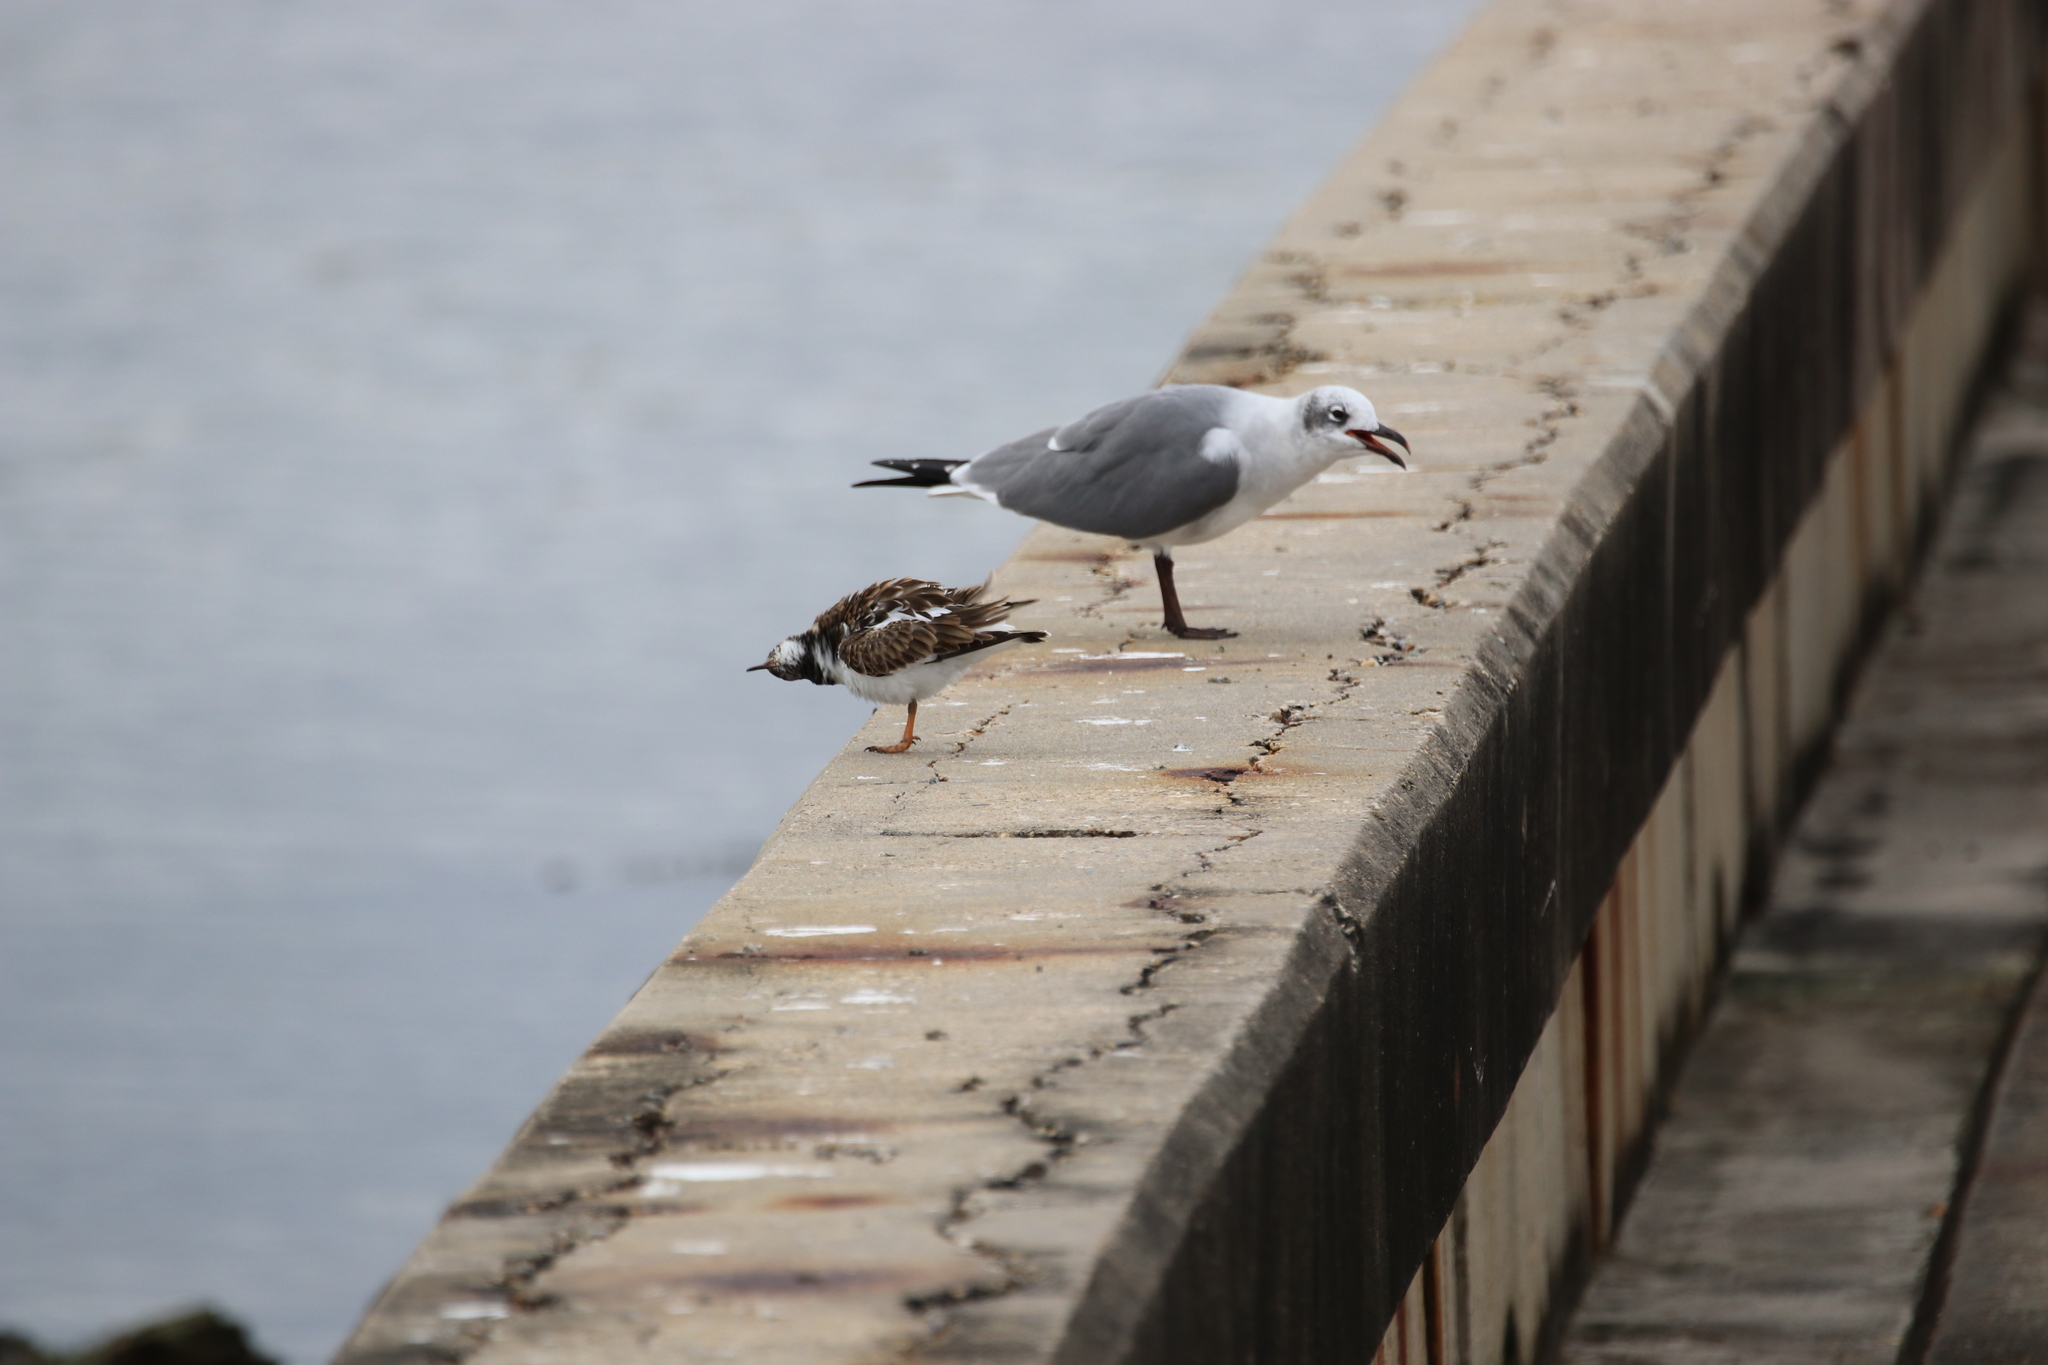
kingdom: Animalia
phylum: Chordata
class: Aves
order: Charadriiformes
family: Scolopacidae
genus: Arenaria
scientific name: Arenaria interpres
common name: Ruddy turnstone
